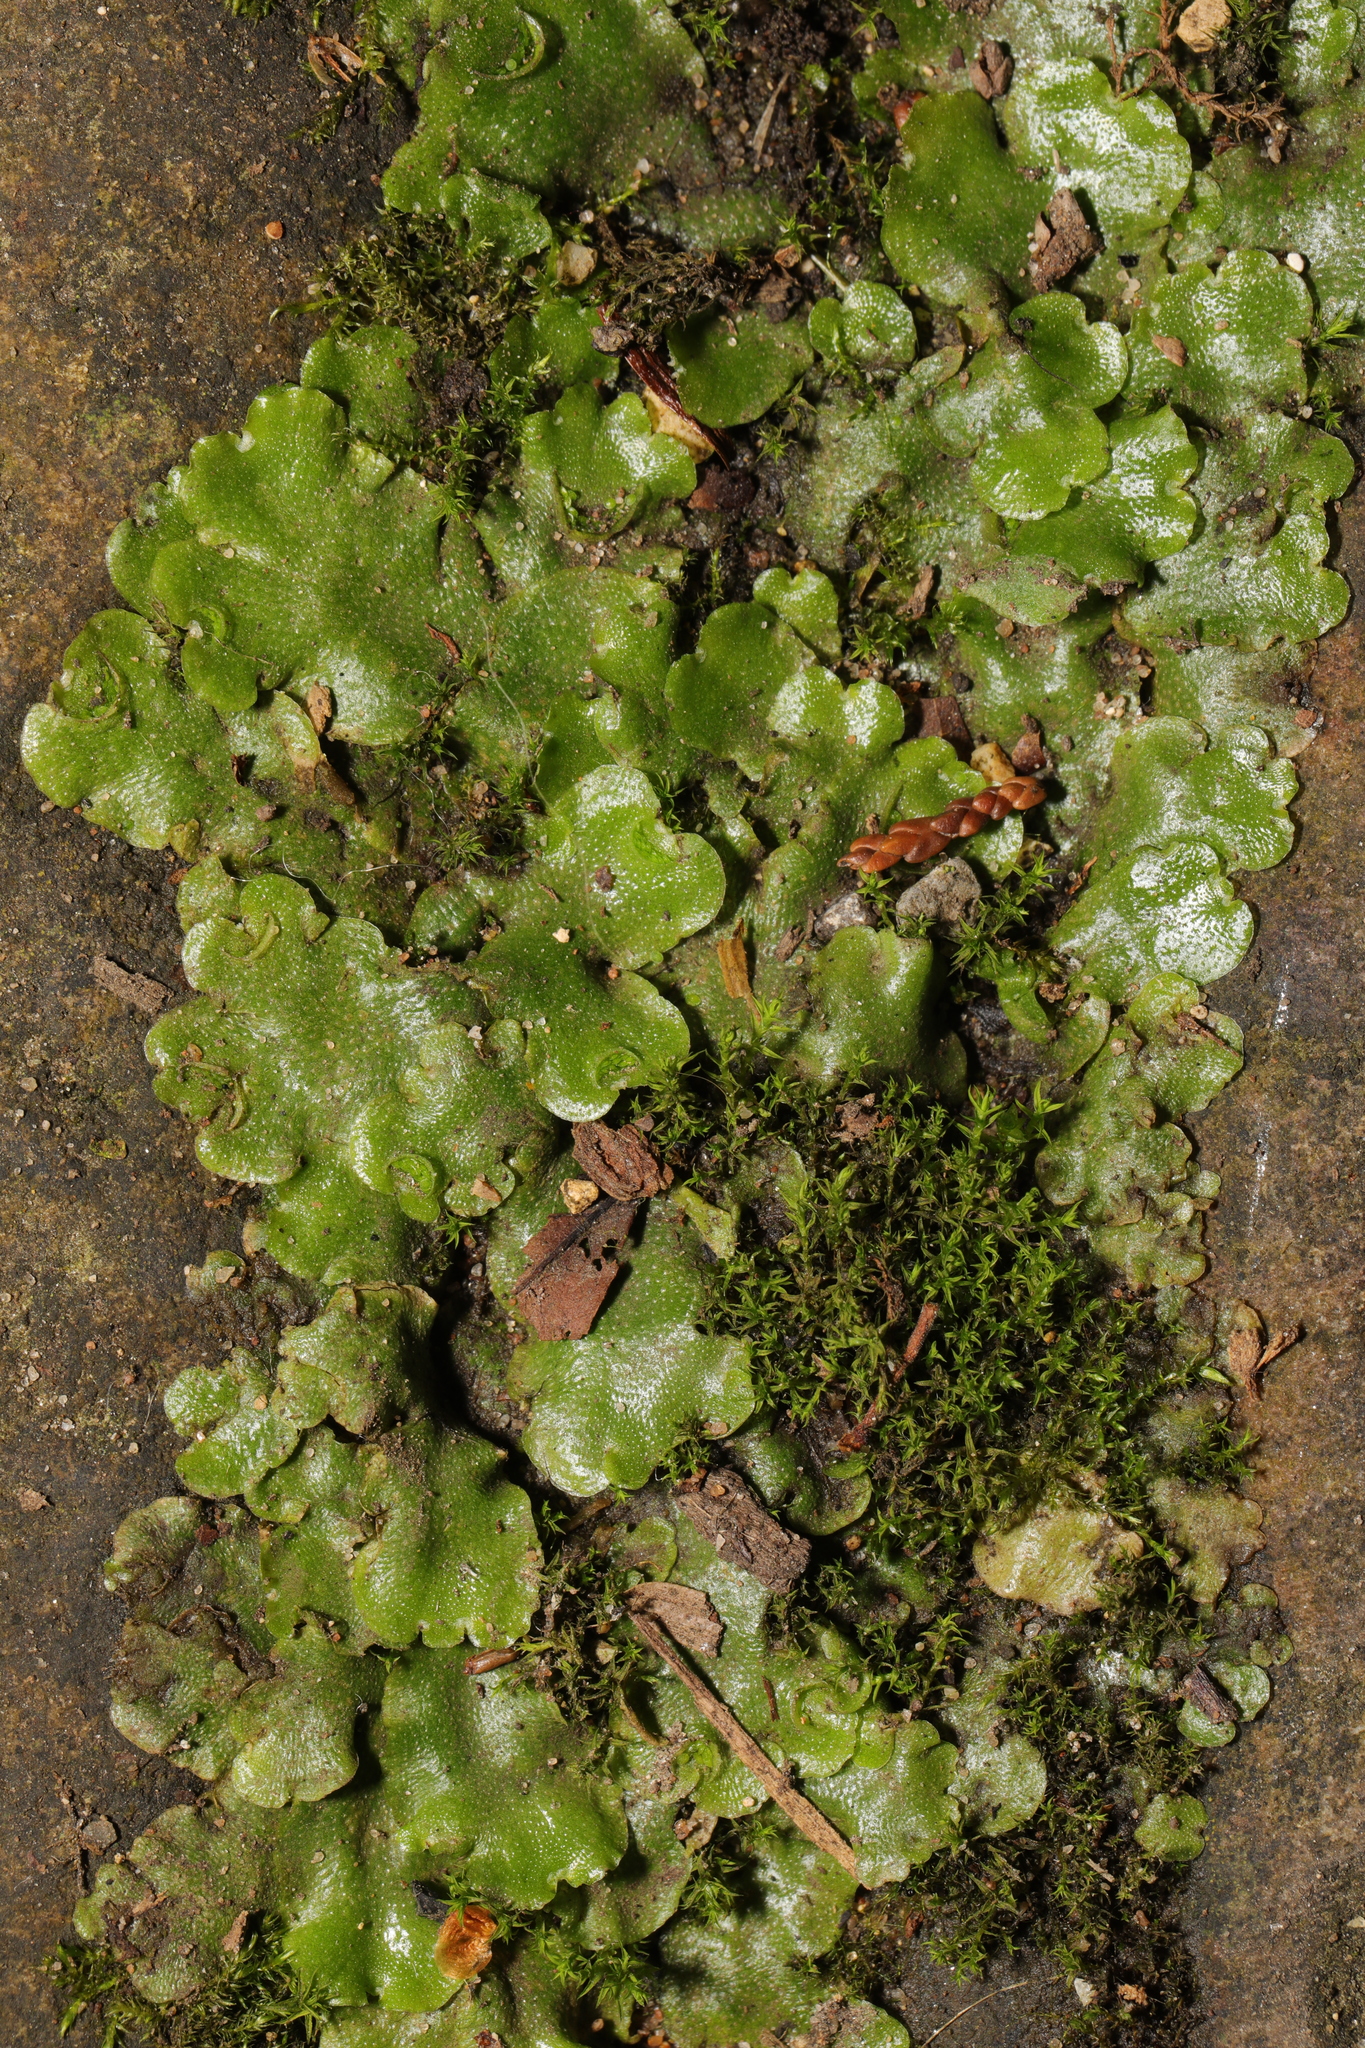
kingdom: Plantae
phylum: Marchantiophyta
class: Marchantiopsida
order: Lunulariales
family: Lunulariaceae
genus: Lunularia
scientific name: Lunularia cruciata
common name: Crescent-cup liverwort
